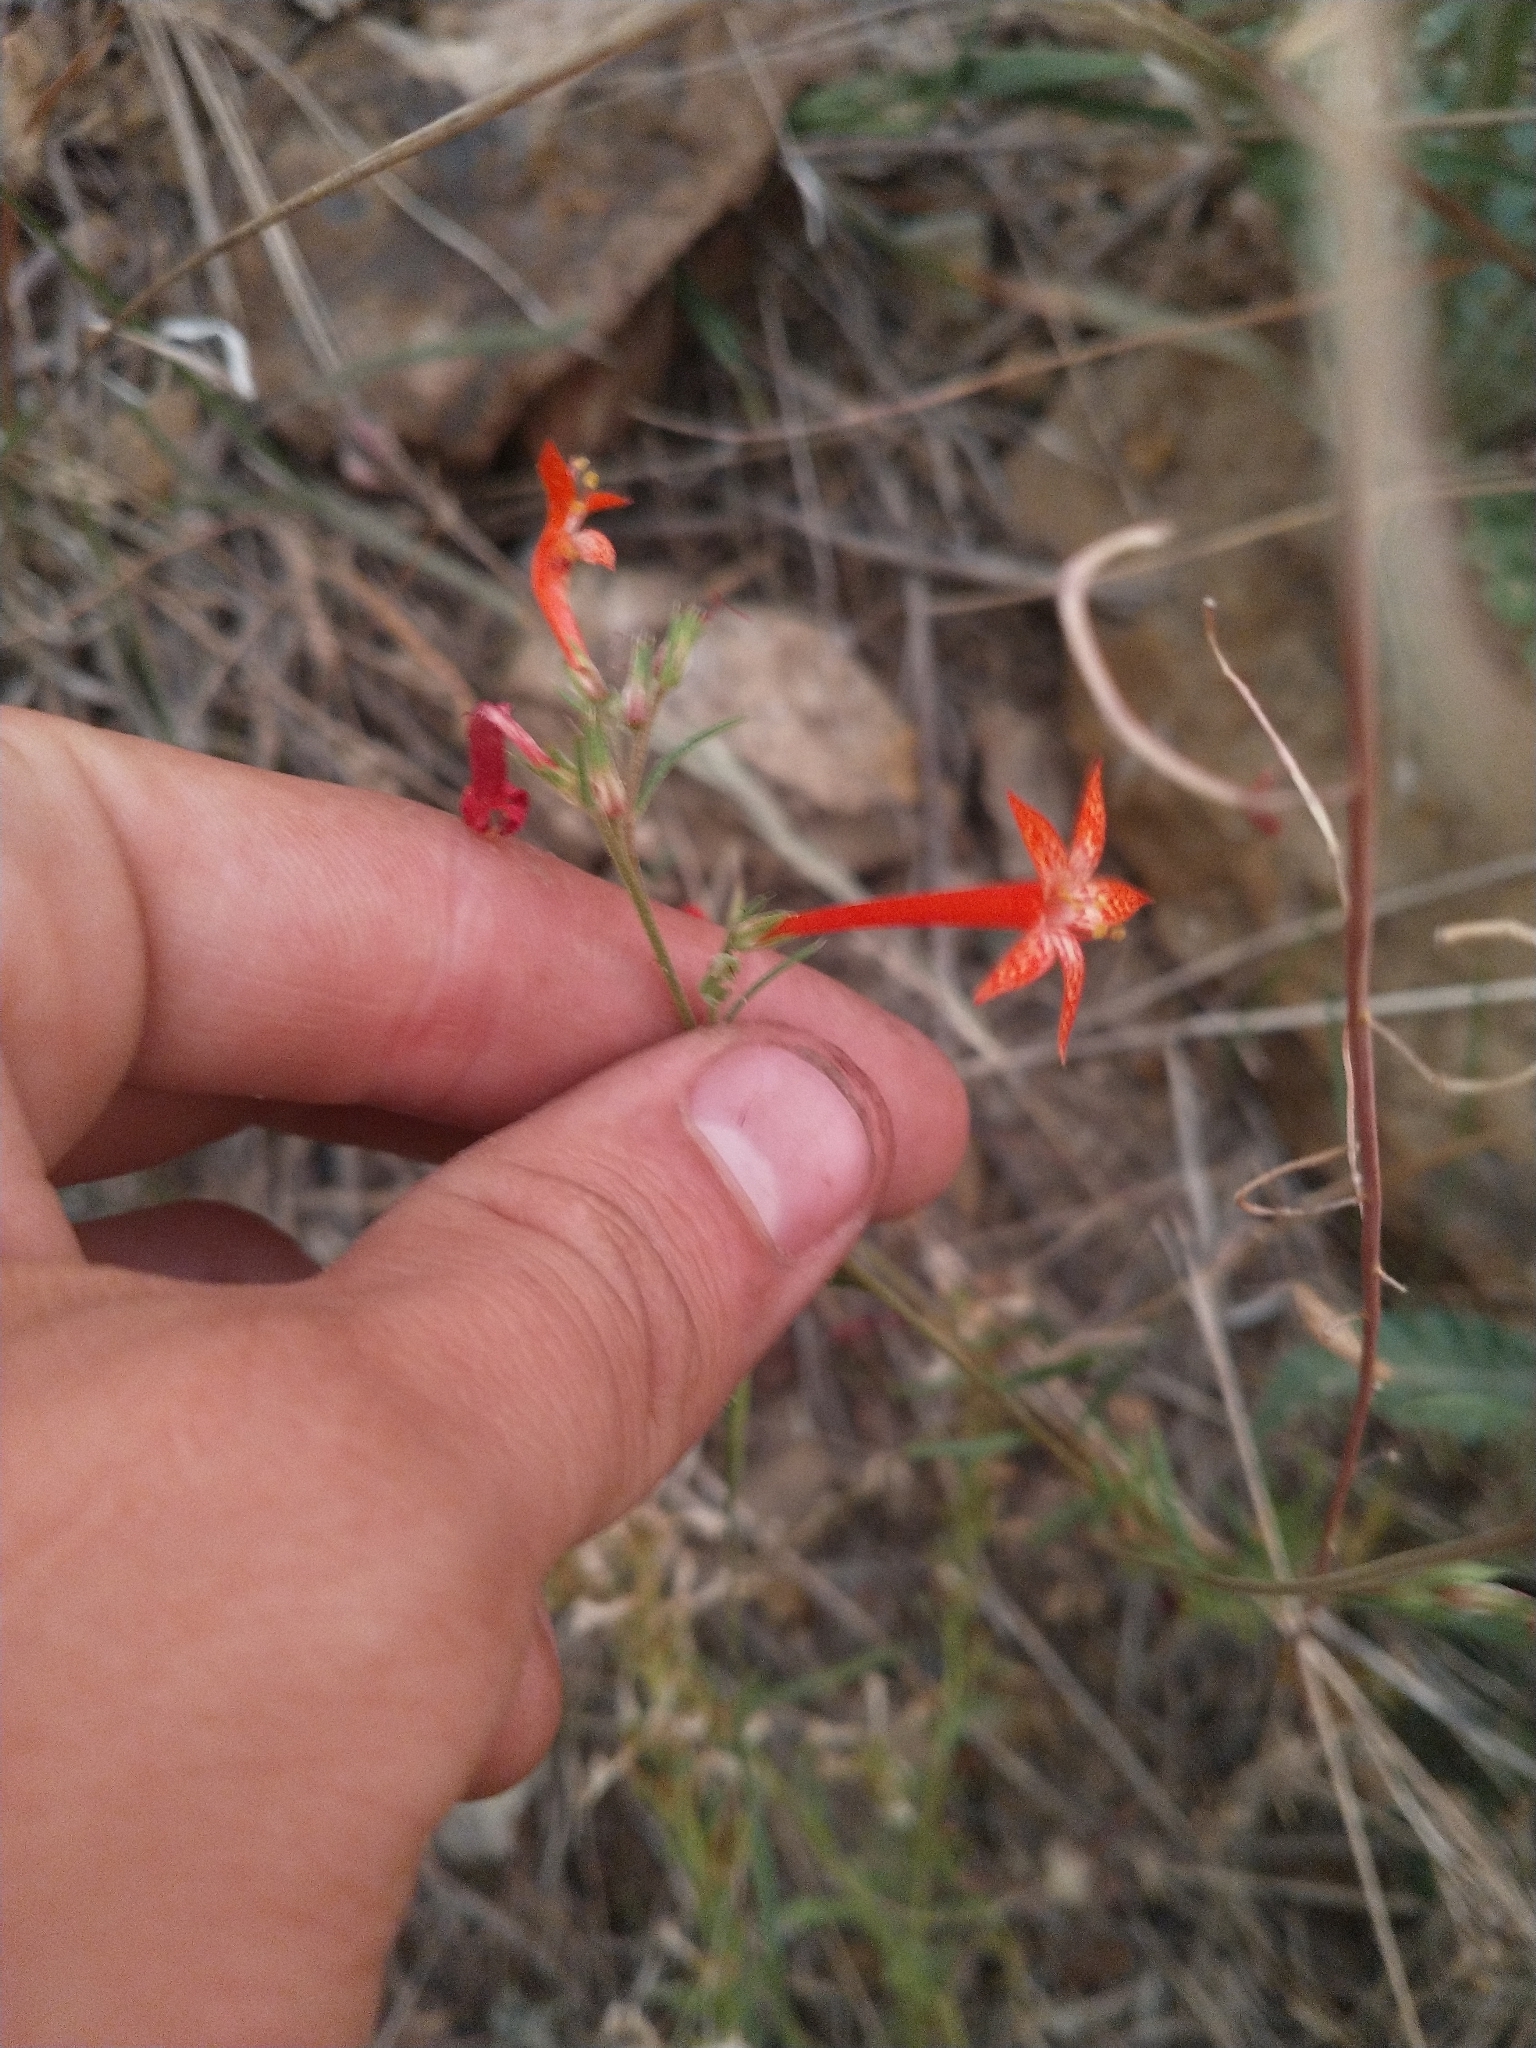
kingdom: Plantae
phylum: Tracheophyta
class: Magnoliopsida
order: Ericales
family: Polemoniaceae
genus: Ipomopsis
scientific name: Ipomopsis aggregata
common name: Scarlet gilia
